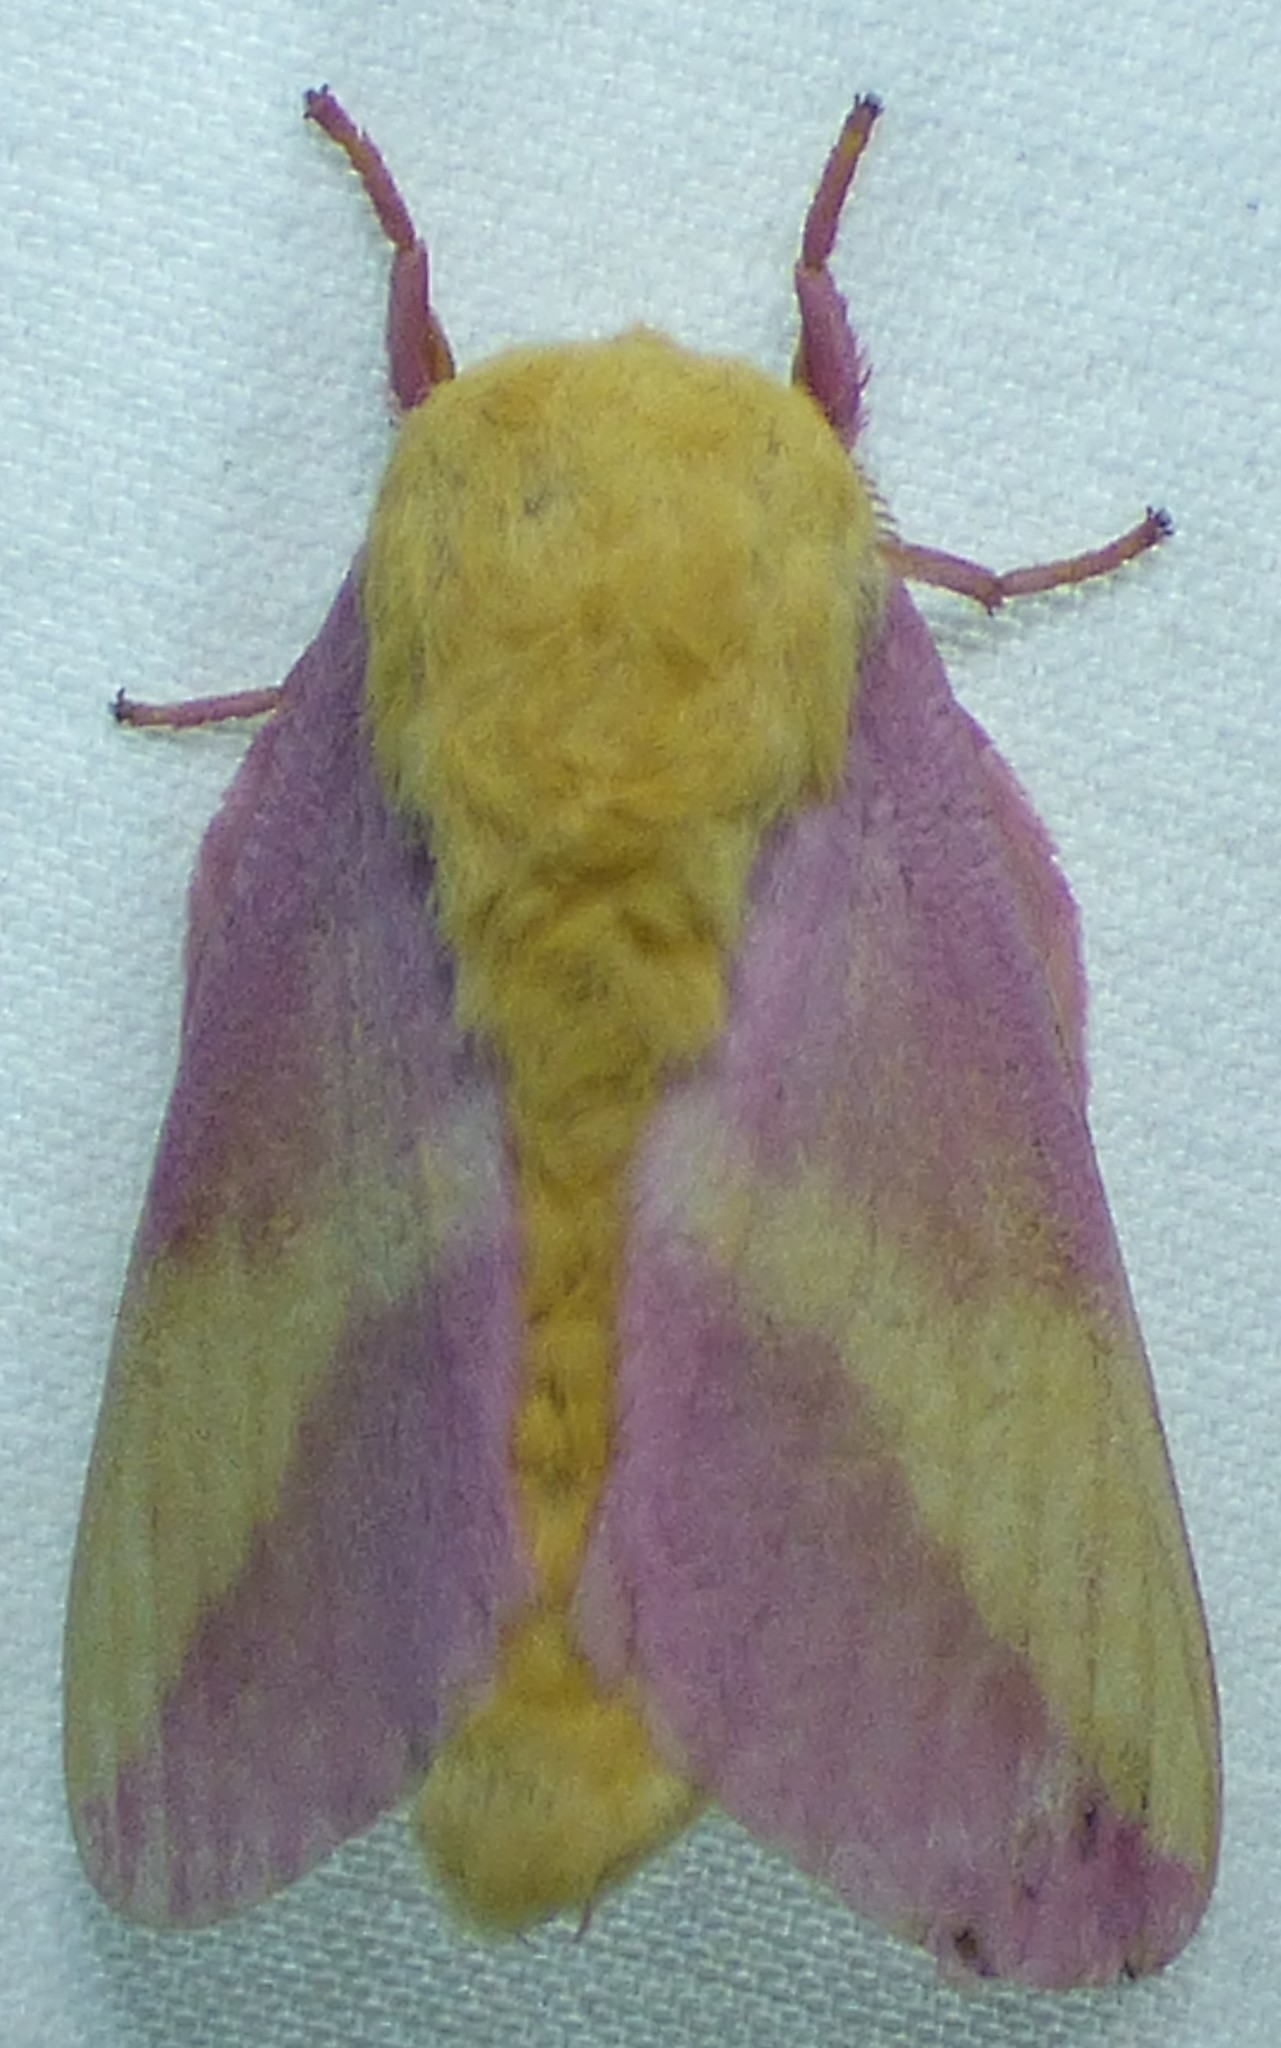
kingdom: Animalia
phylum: Arthropoda
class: Insecta
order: Lepidoptera
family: Saturniidae
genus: Dryocampa
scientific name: Dryocampa rubicunda
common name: Rosy maple moth
